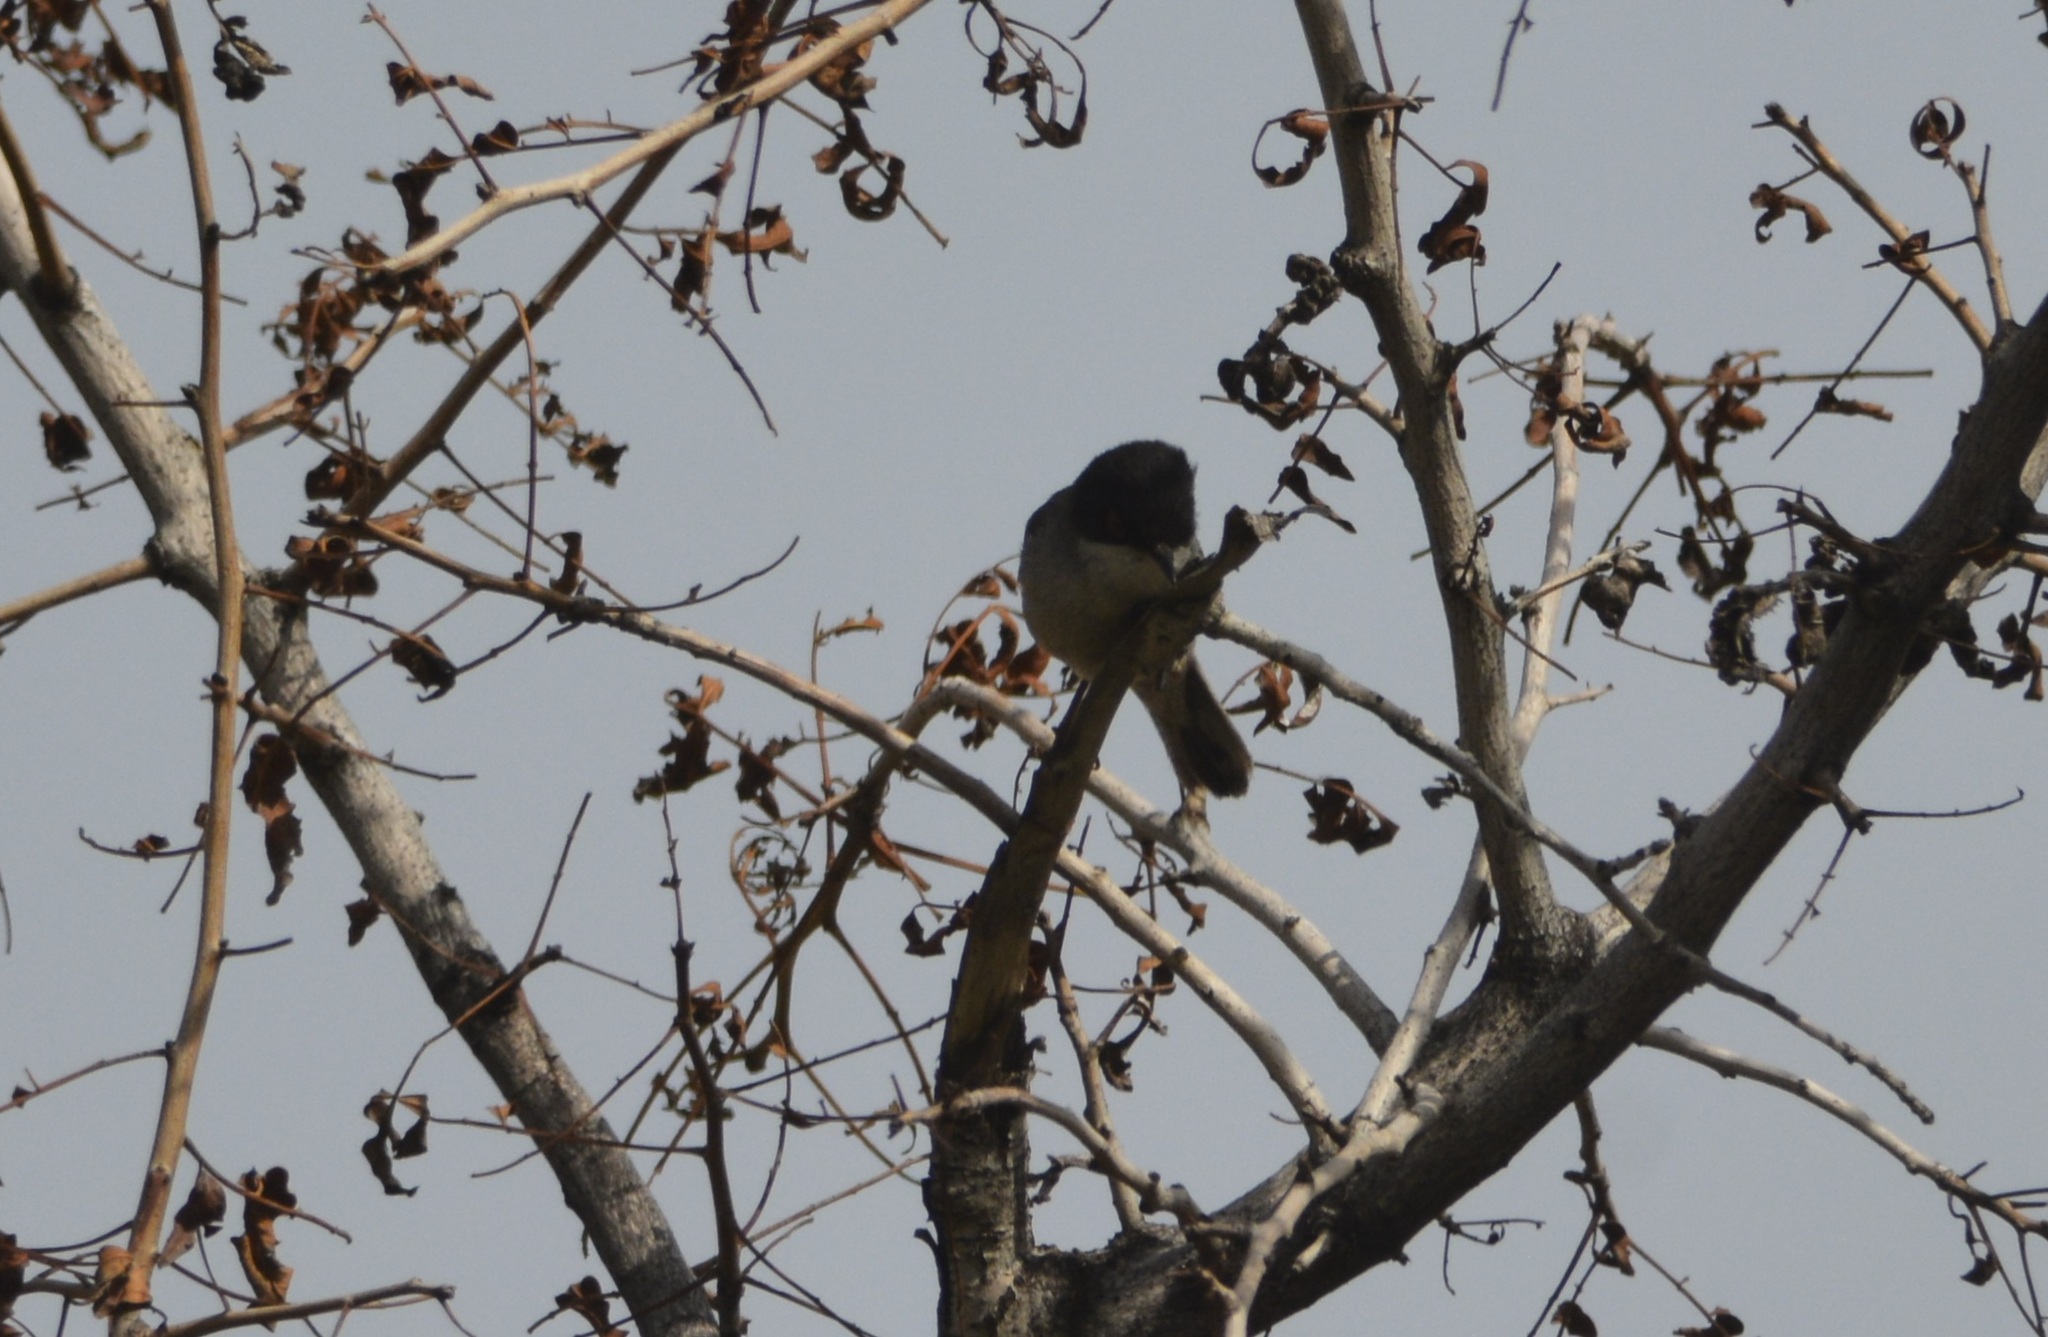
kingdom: Animalia
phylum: Chordata
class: Aves
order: Passeriformes
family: Sylviidae
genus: Curruca
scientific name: Curruca melanocephala
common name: Sardinian warbler
